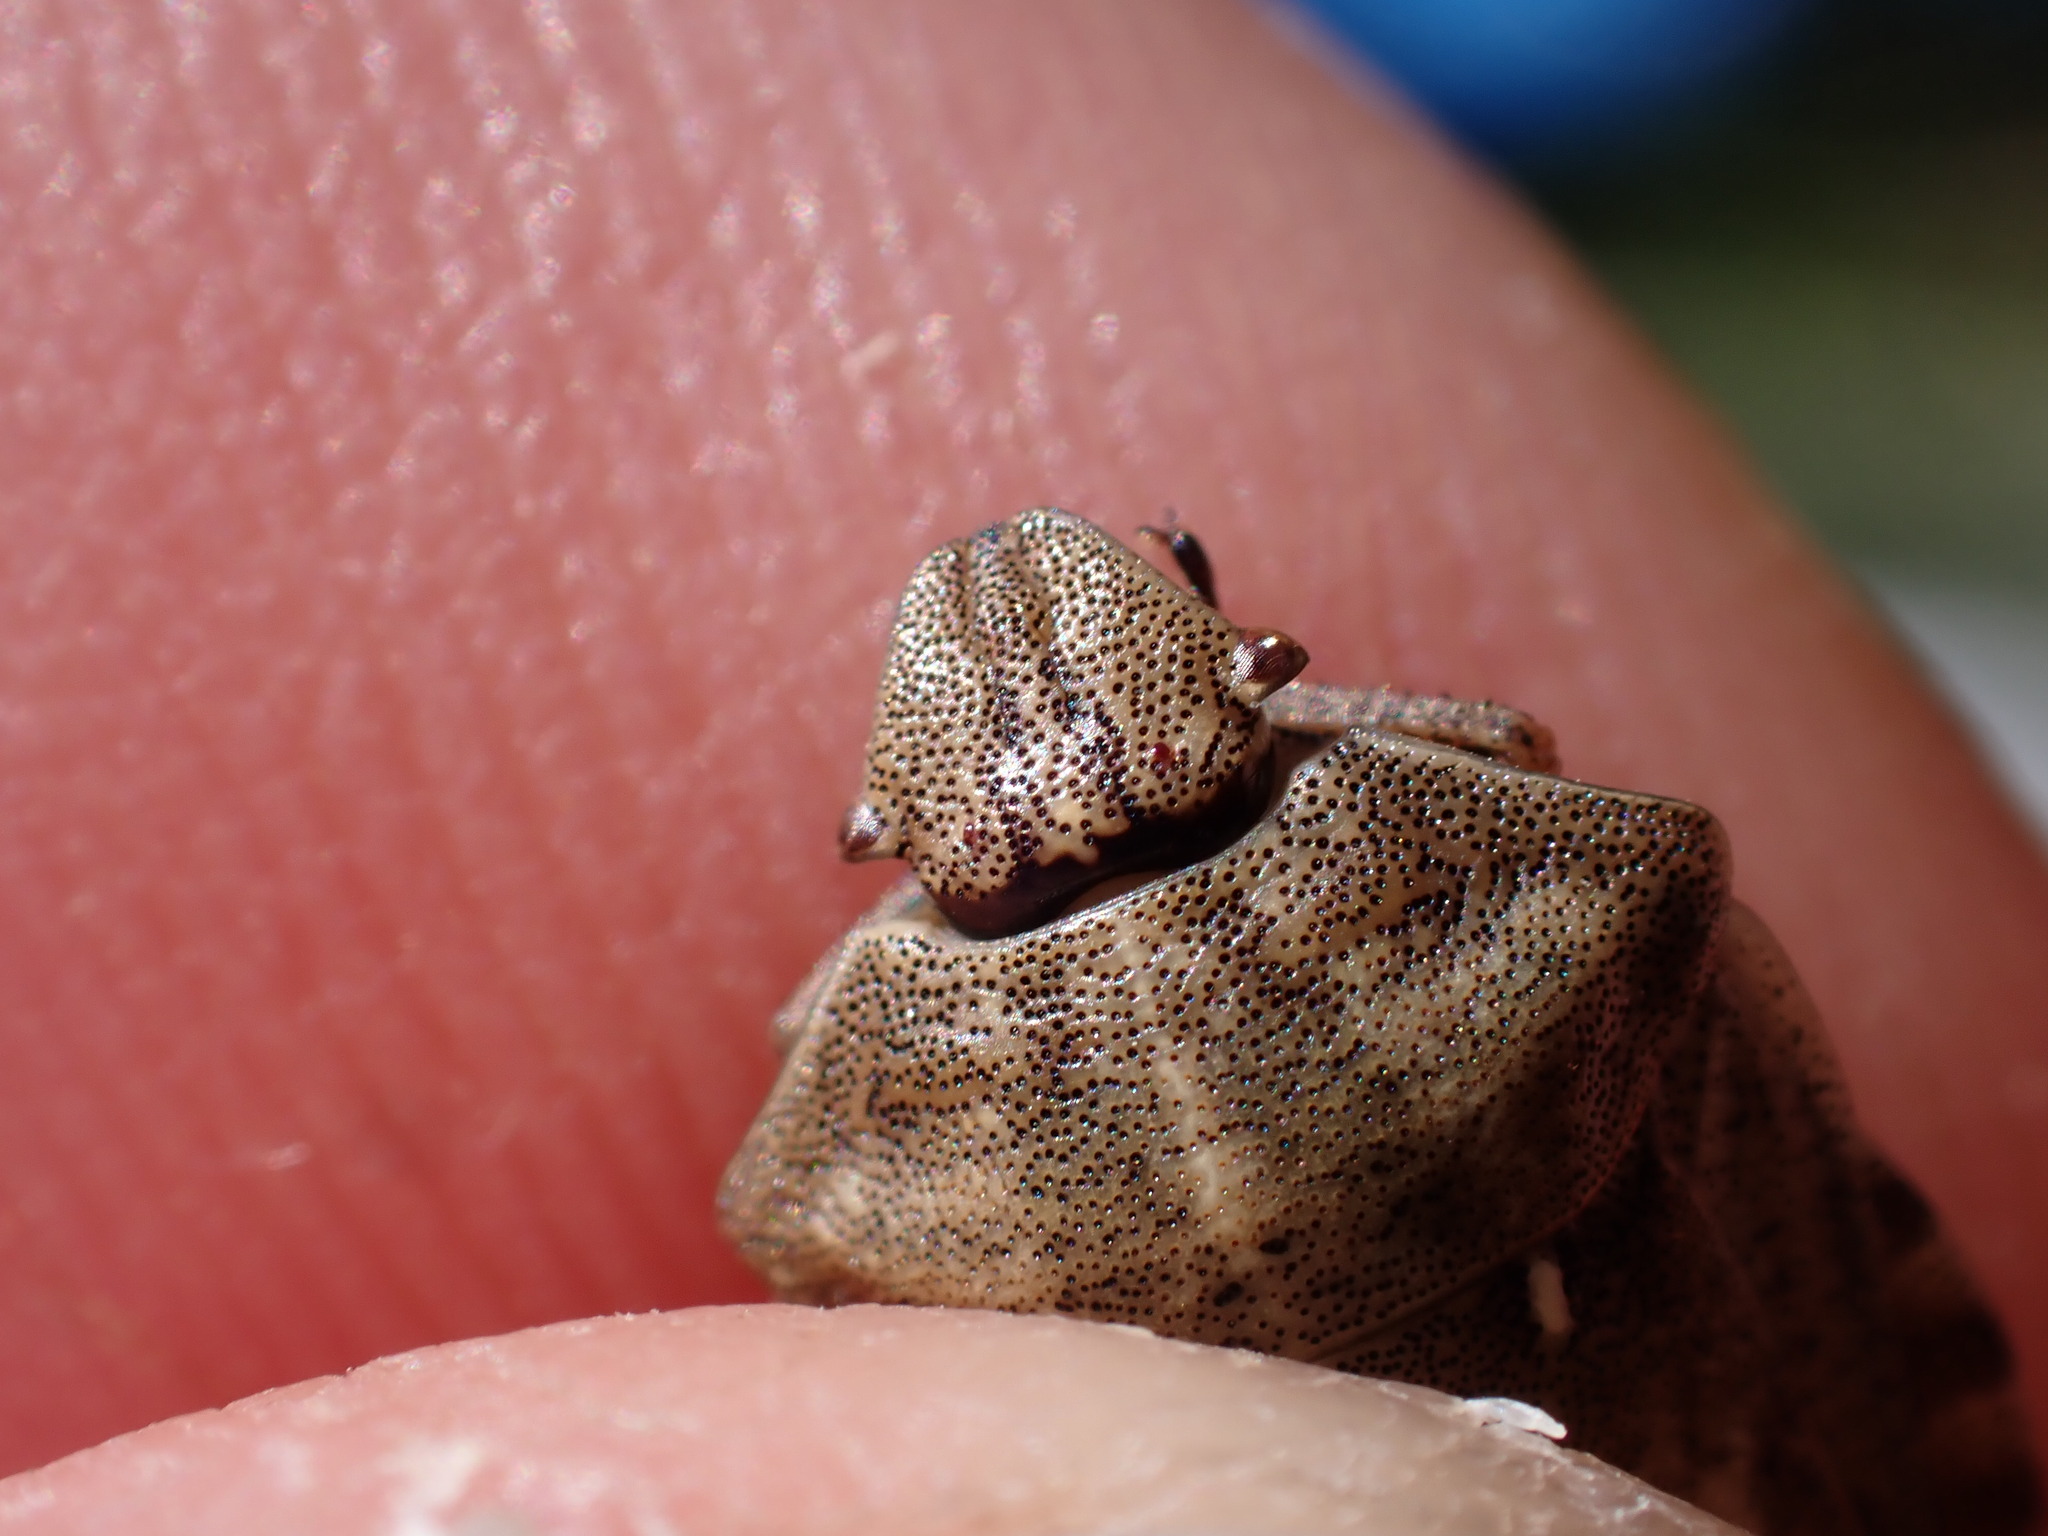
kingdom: Animalia
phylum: Arthropoda
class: Insecta
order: Hemiptera
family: Scutelleridae
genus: Eurygaster
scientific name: Eurygaster testudinaria
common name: Tortoise bug
